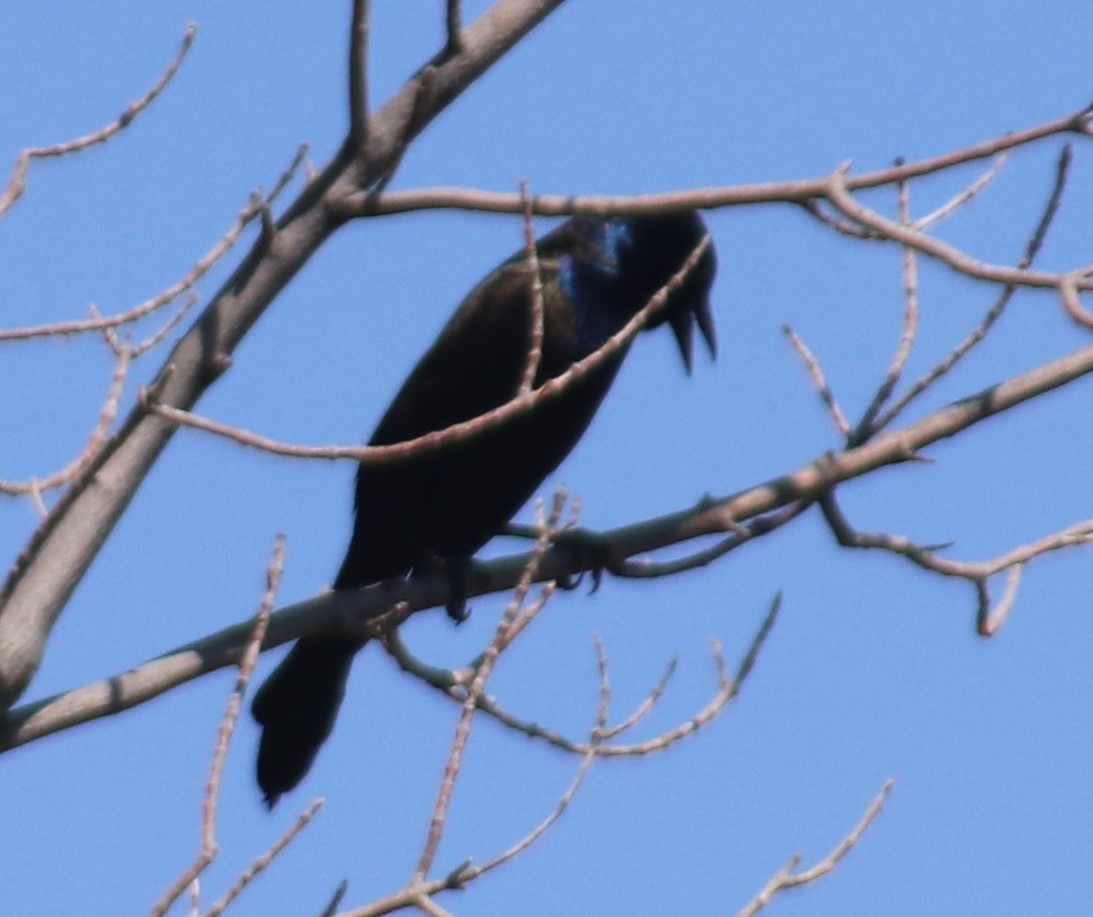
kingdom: Animalia
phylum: Chordata
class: Aves
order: Passeriformes
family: Icteridae
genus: Quiscalus
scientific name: Quiscalus quiscula
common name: Common grackle
